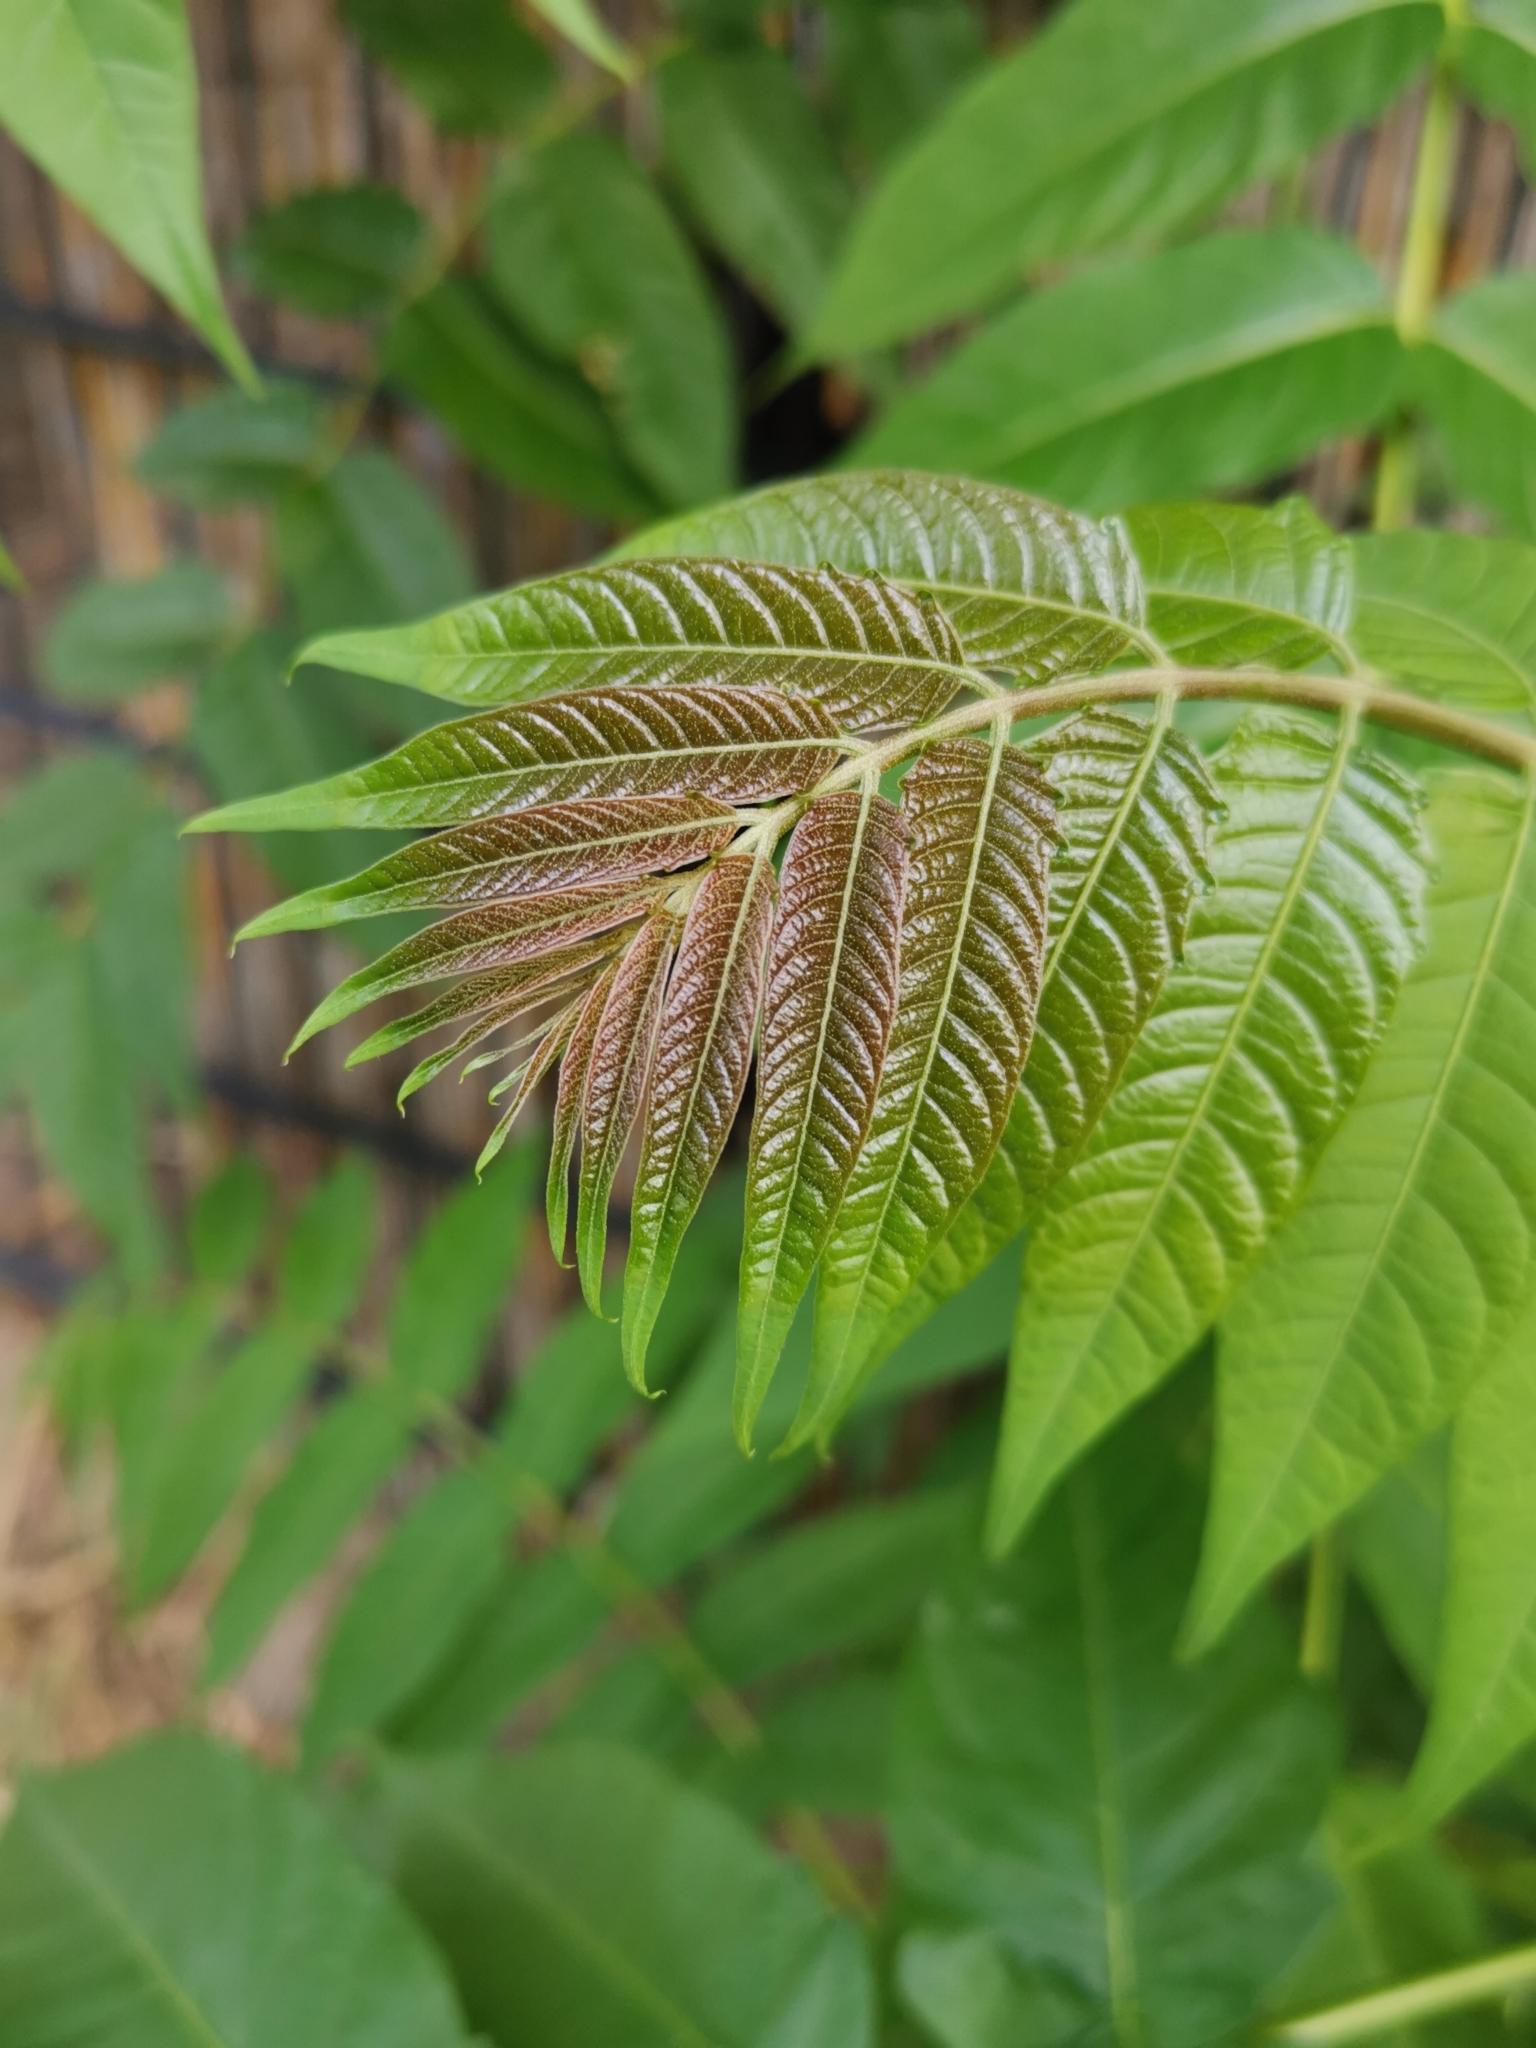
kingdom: Plantae
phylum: Tracheophyta
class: Magnoliopsida
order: Sapindales
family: Simaroubaceae
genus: Ailanthus
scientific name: Ailanthus altissima
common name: Tree-of-heaven
